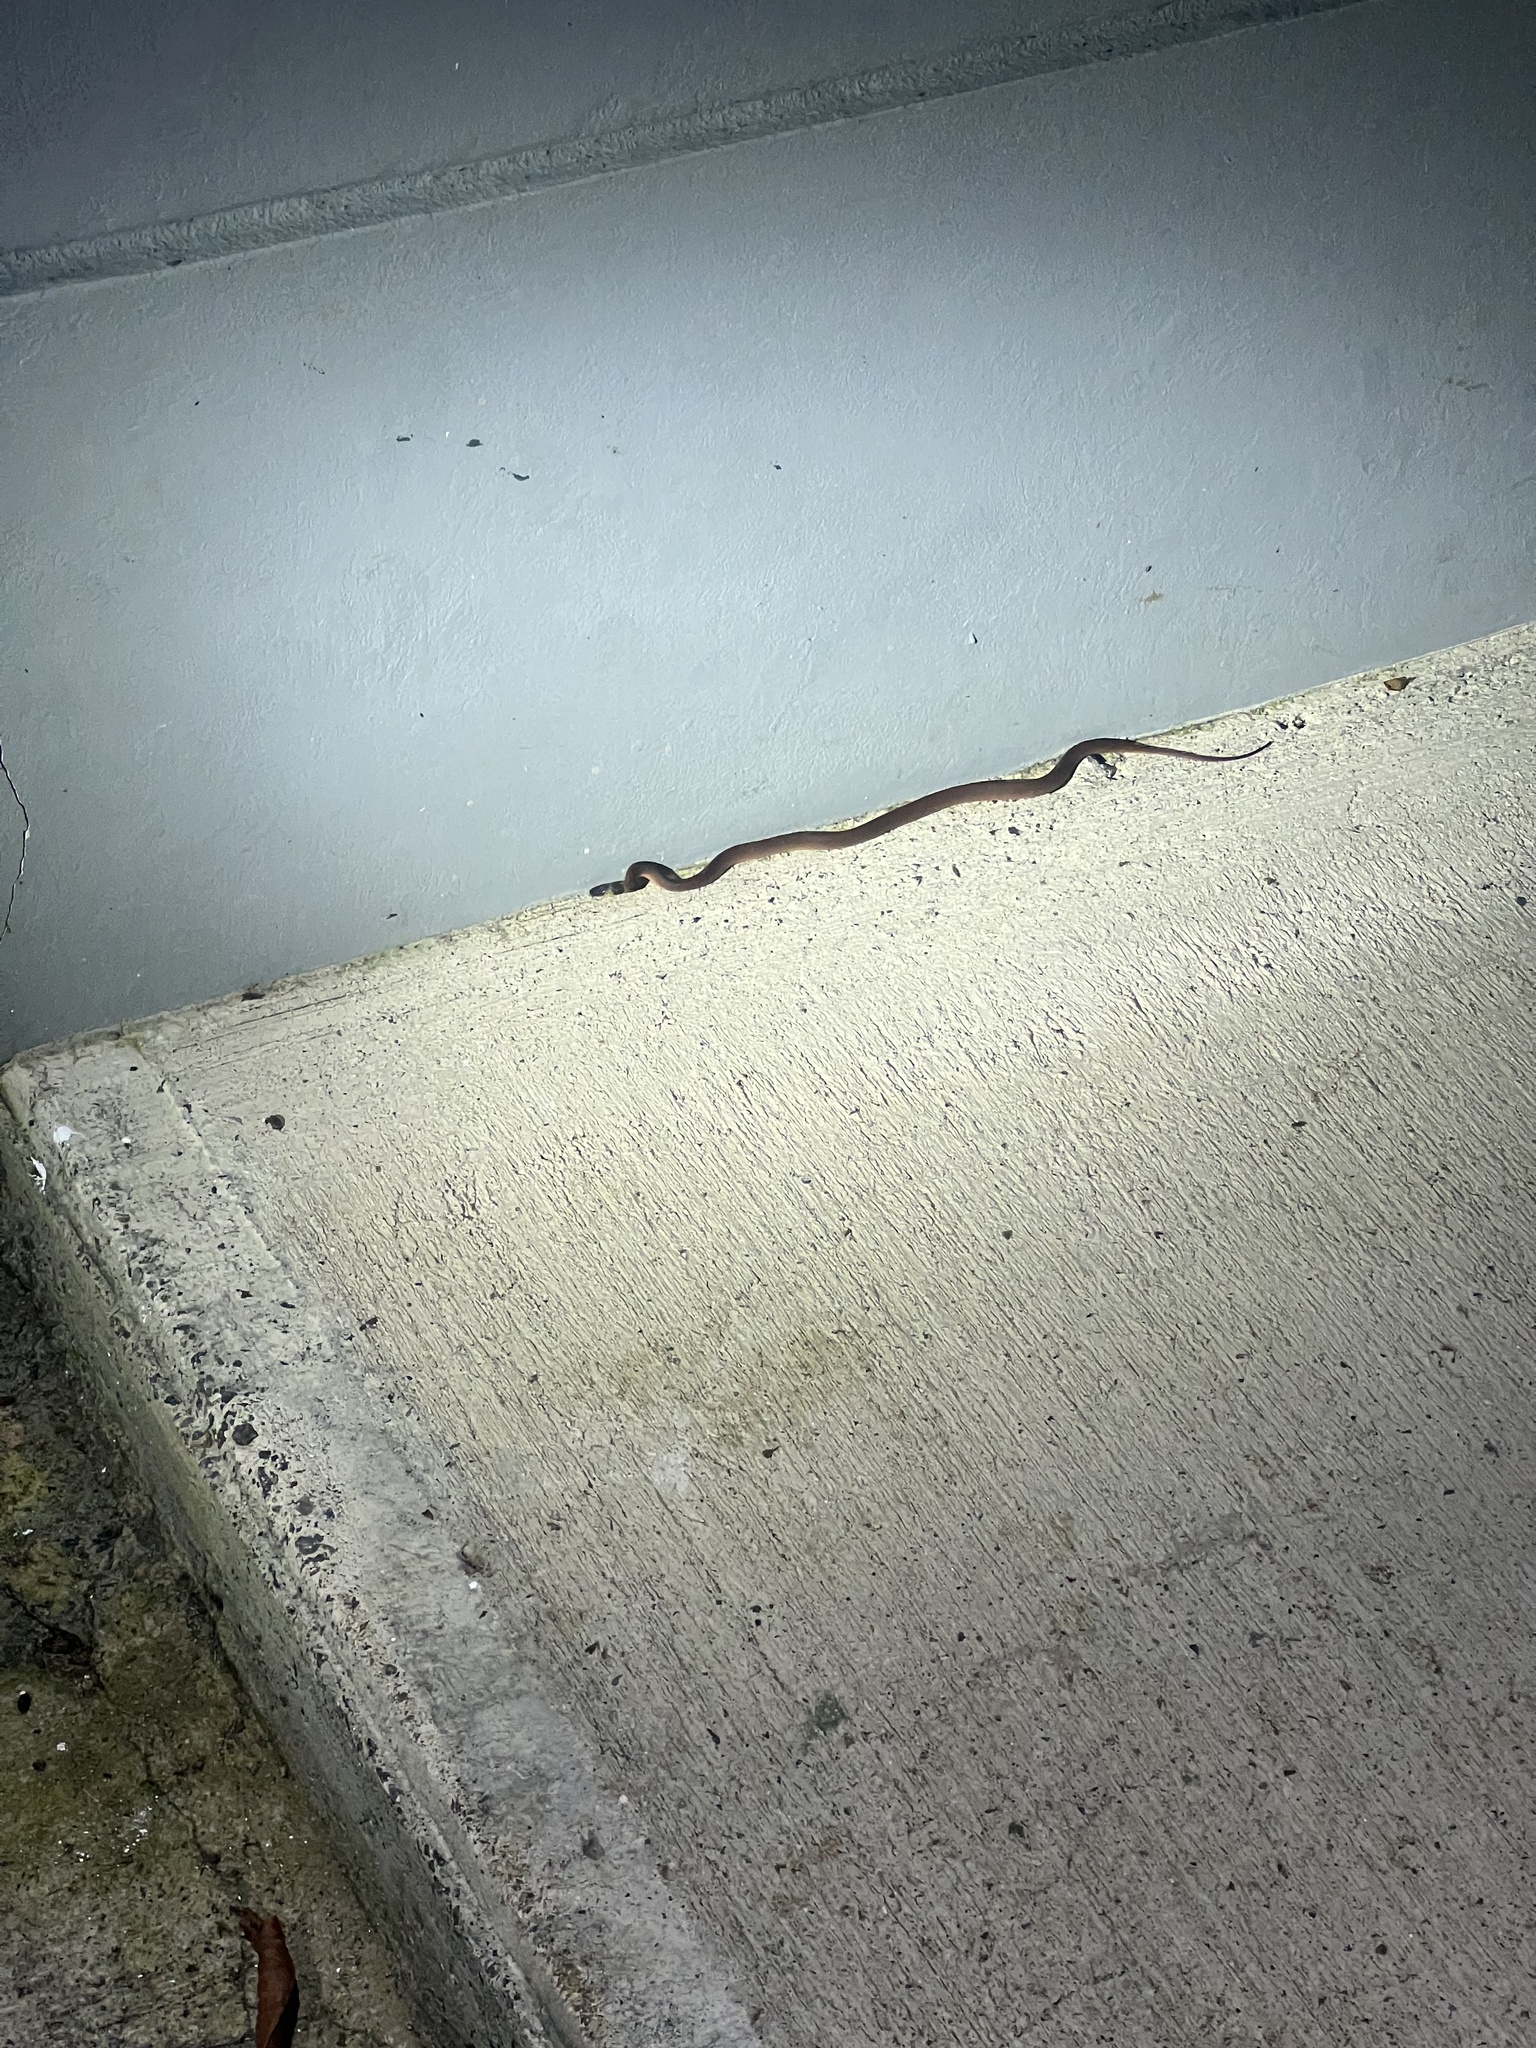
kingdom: Animalia
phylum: Chordata
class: Squamata
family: Colubridae
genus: Ninia
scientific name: Ninia sebae
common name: Redback coffee snake
